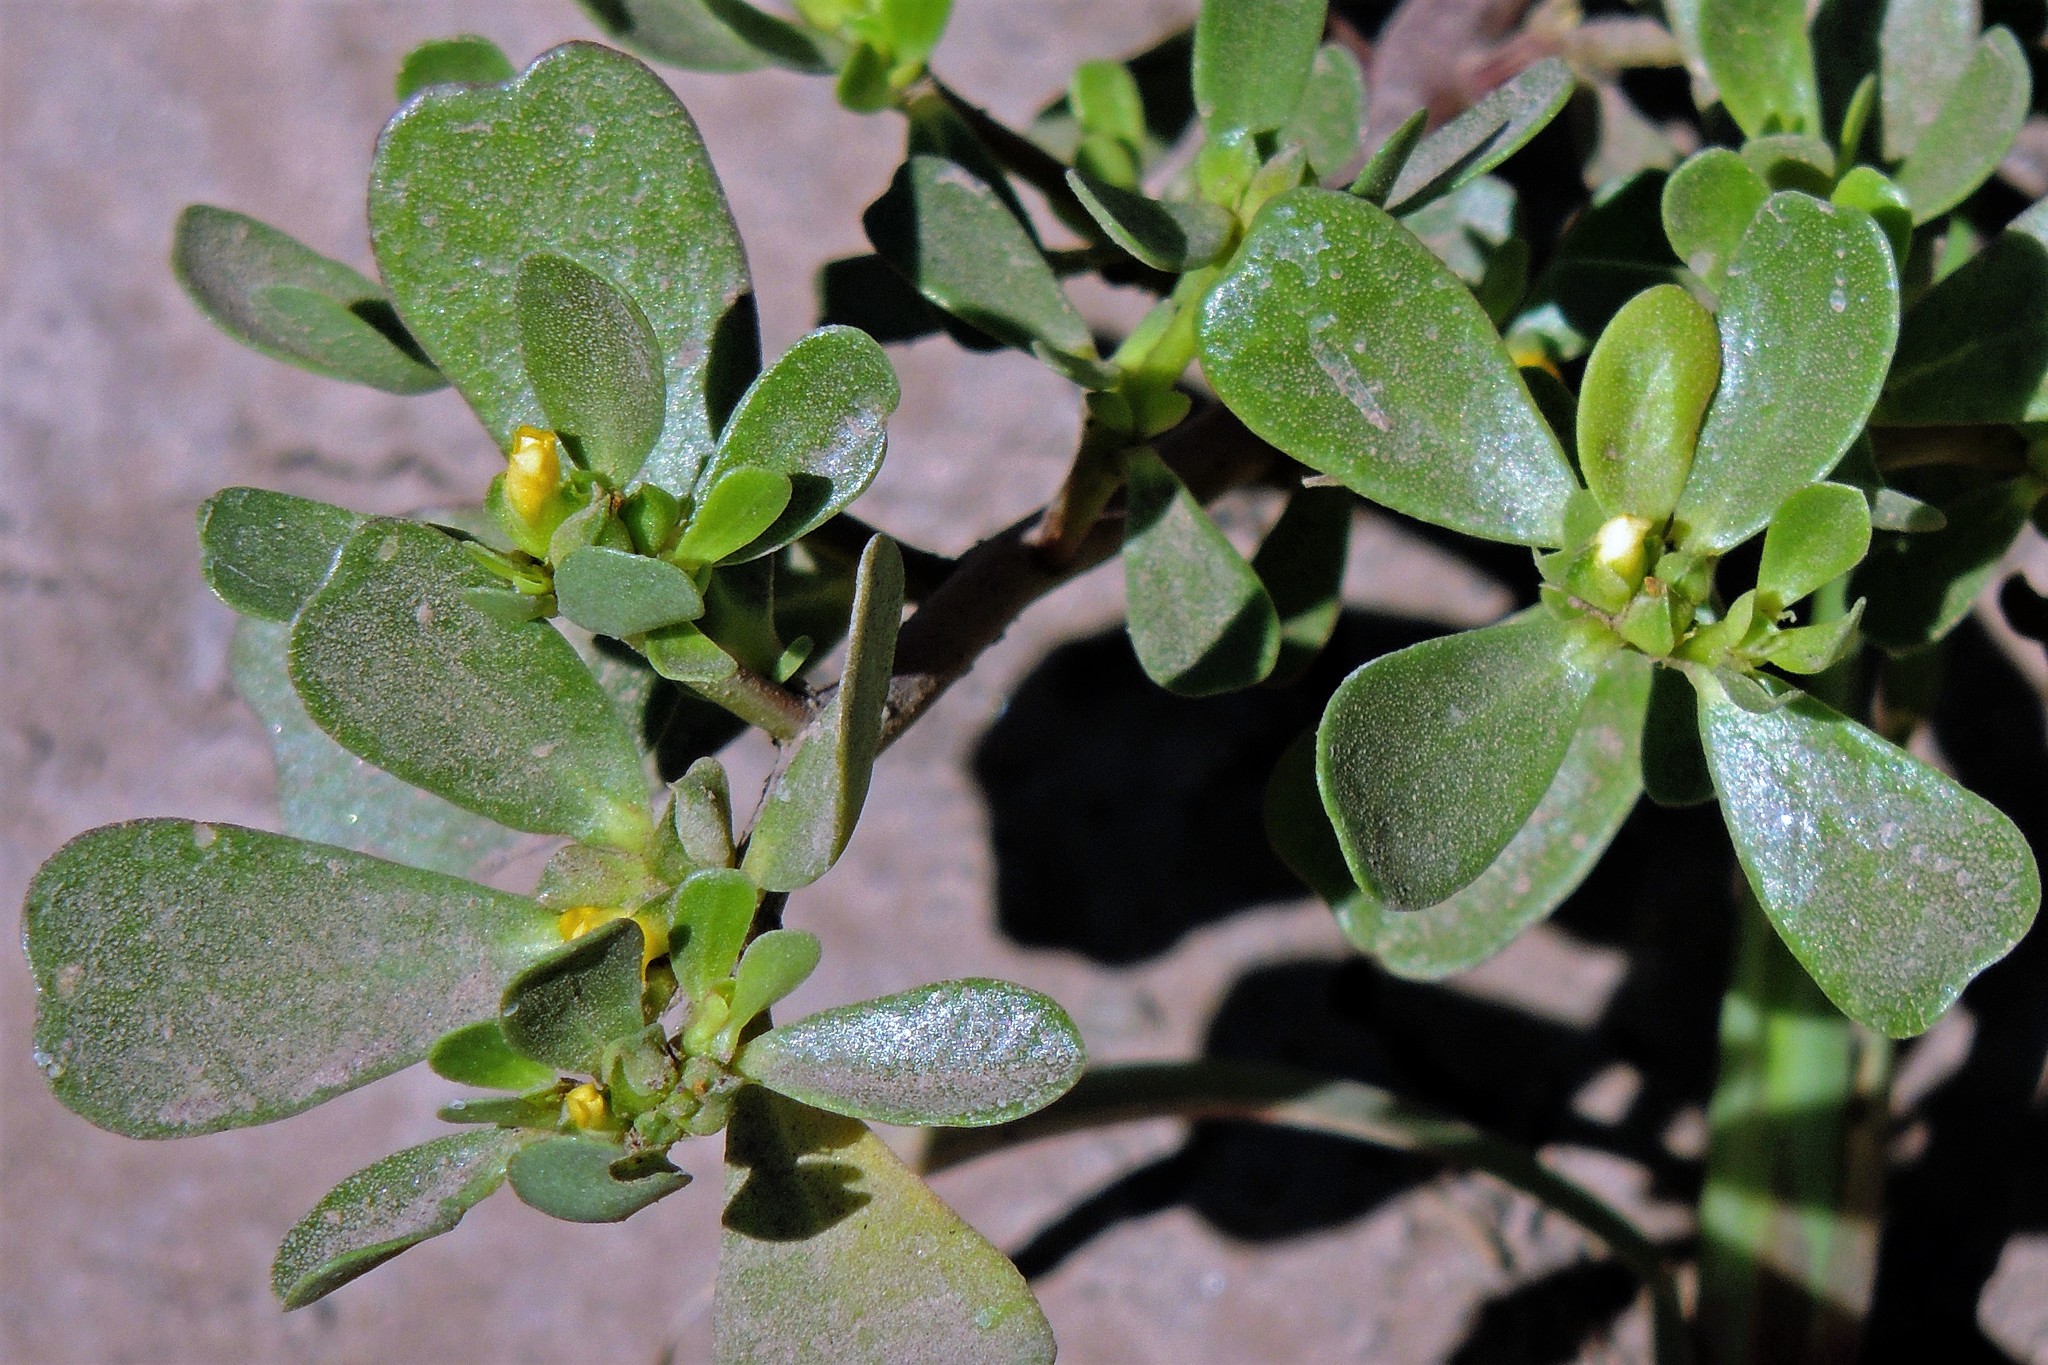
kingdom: Plantae
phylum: Tracheophyta
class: Magnoliopsida
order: Caryophyllales
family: Portulacaceae
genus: Portulaca
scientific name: Portulaca oleracea
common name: Common purslane
